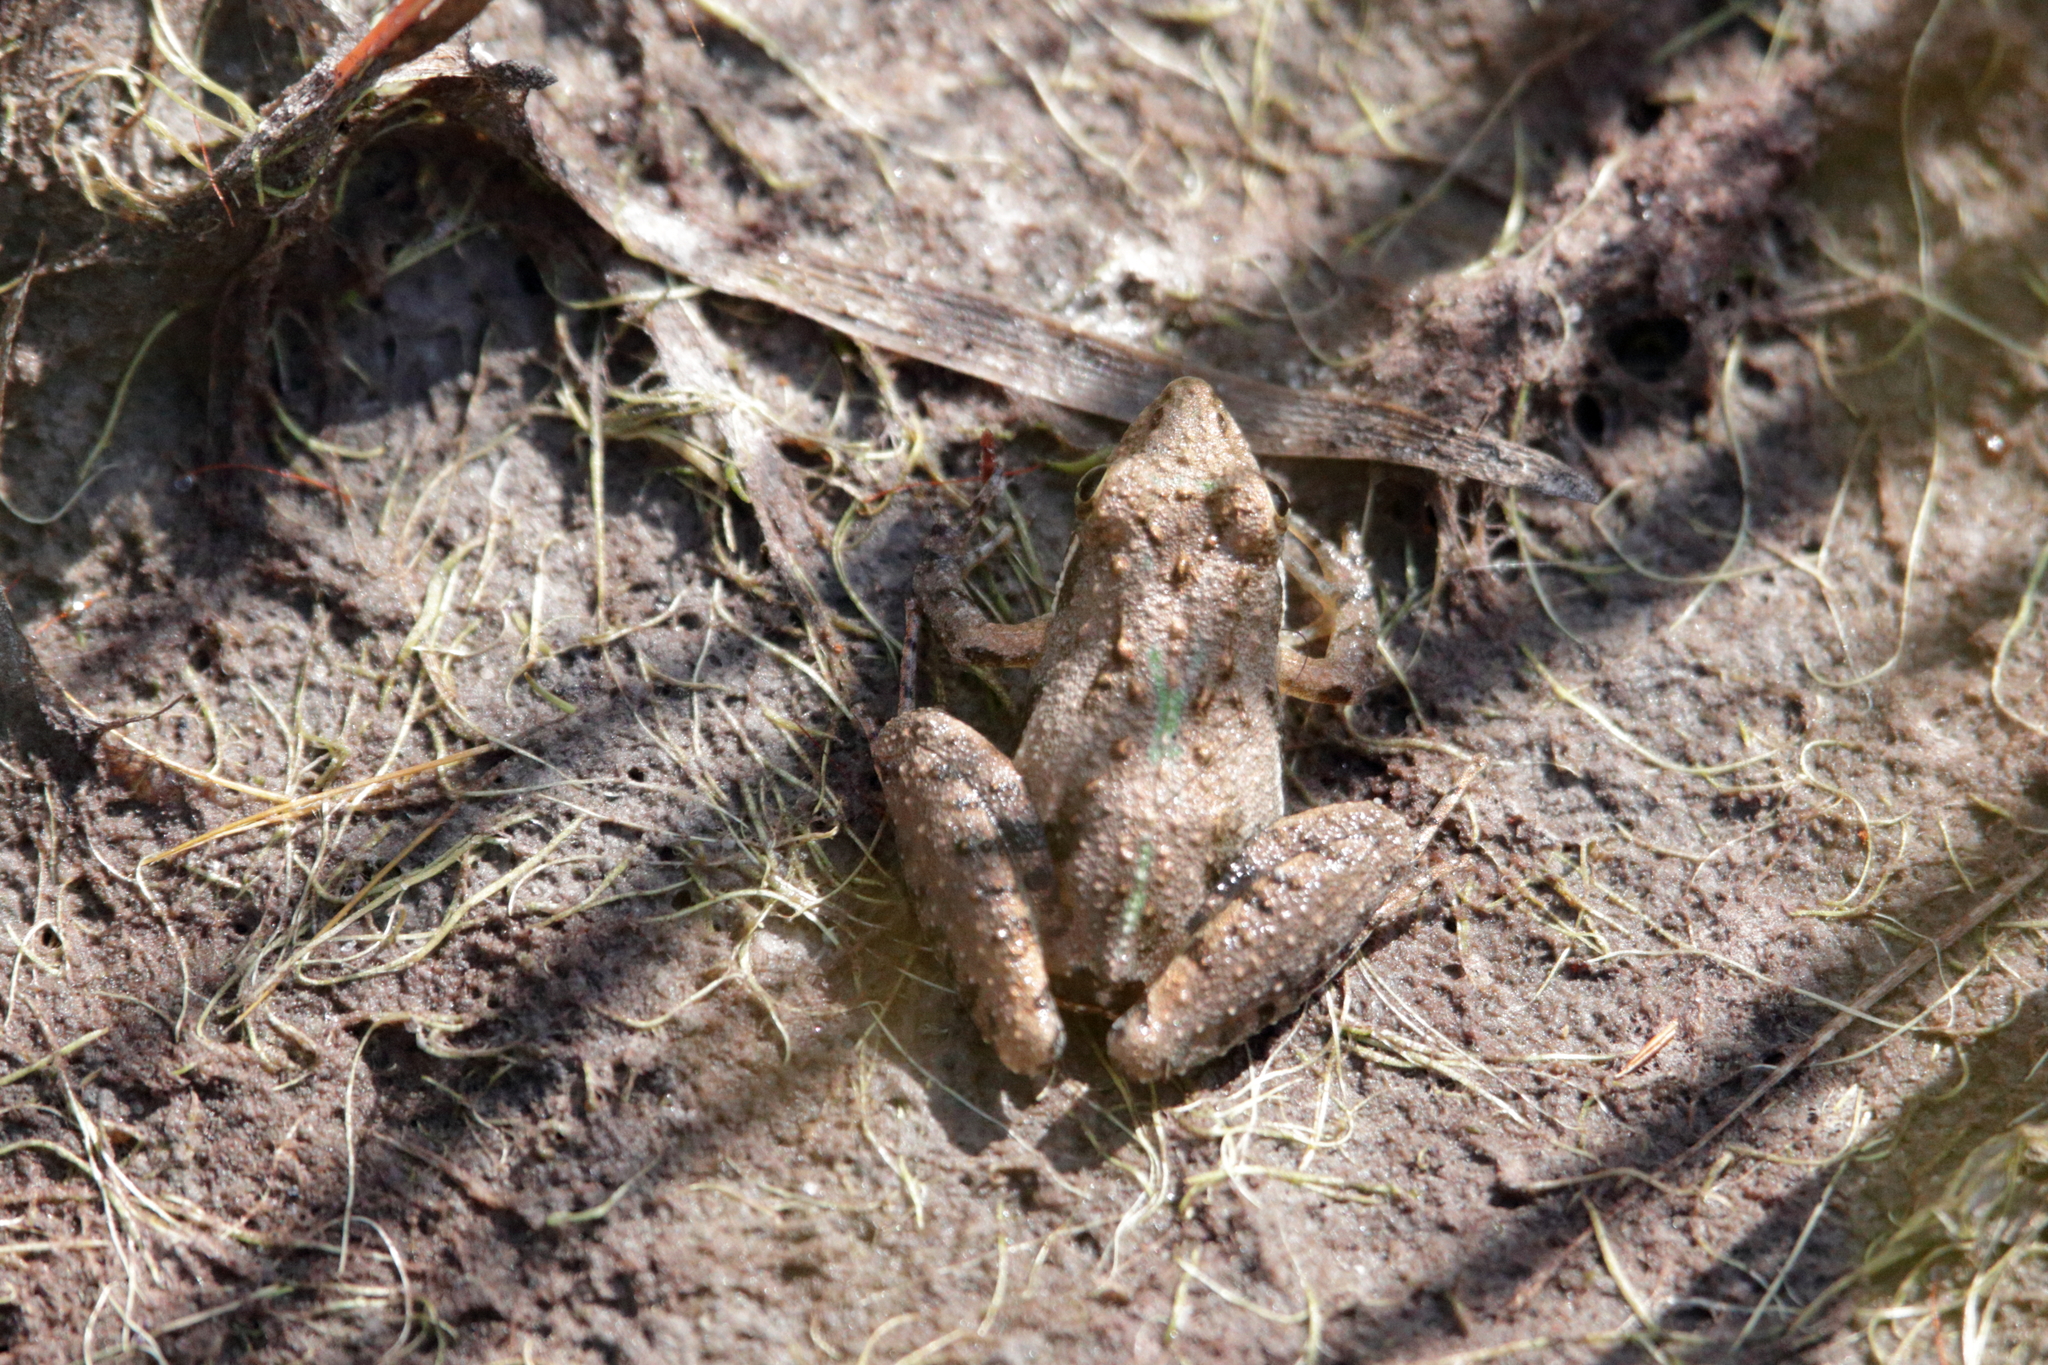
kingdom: Animalia
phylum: Chordata
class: Amphibia
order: Anura
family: Hylidae
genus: Acris
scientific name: Acris gryllus
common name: Southern cricket frog
